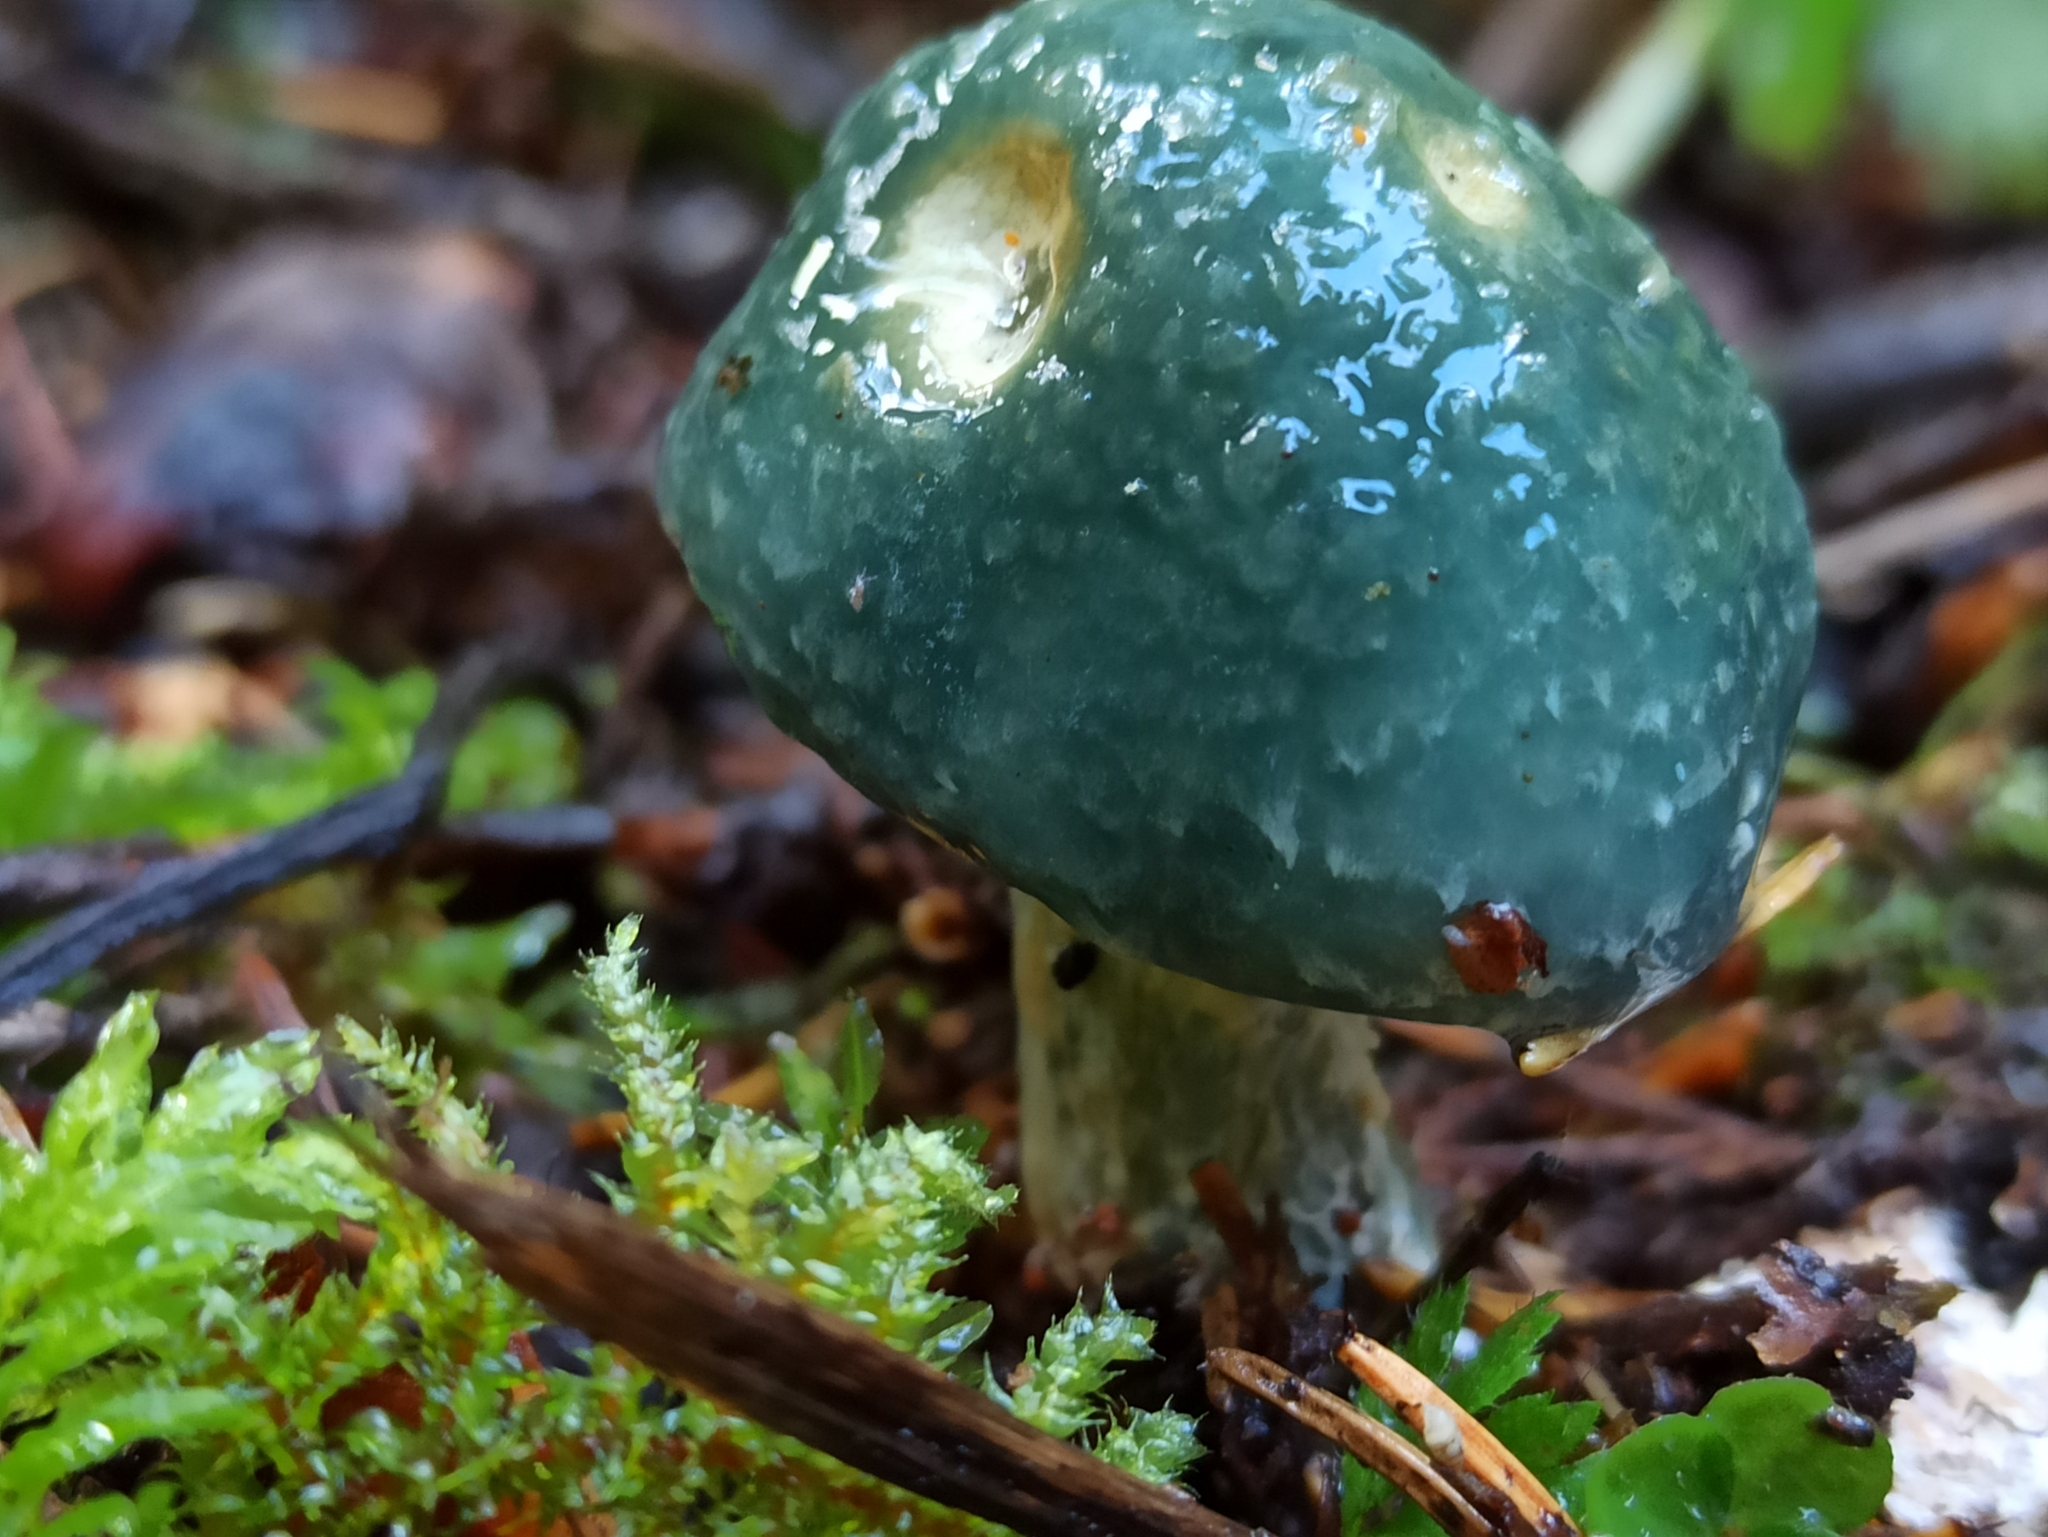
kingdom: Fungi
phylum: Basidiomycota
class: Agaricomycetes
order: Agaricales
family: Strophariaceae
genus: Stropharia
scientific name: Stropharia aeruginosa
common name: Verdigris roundhead
